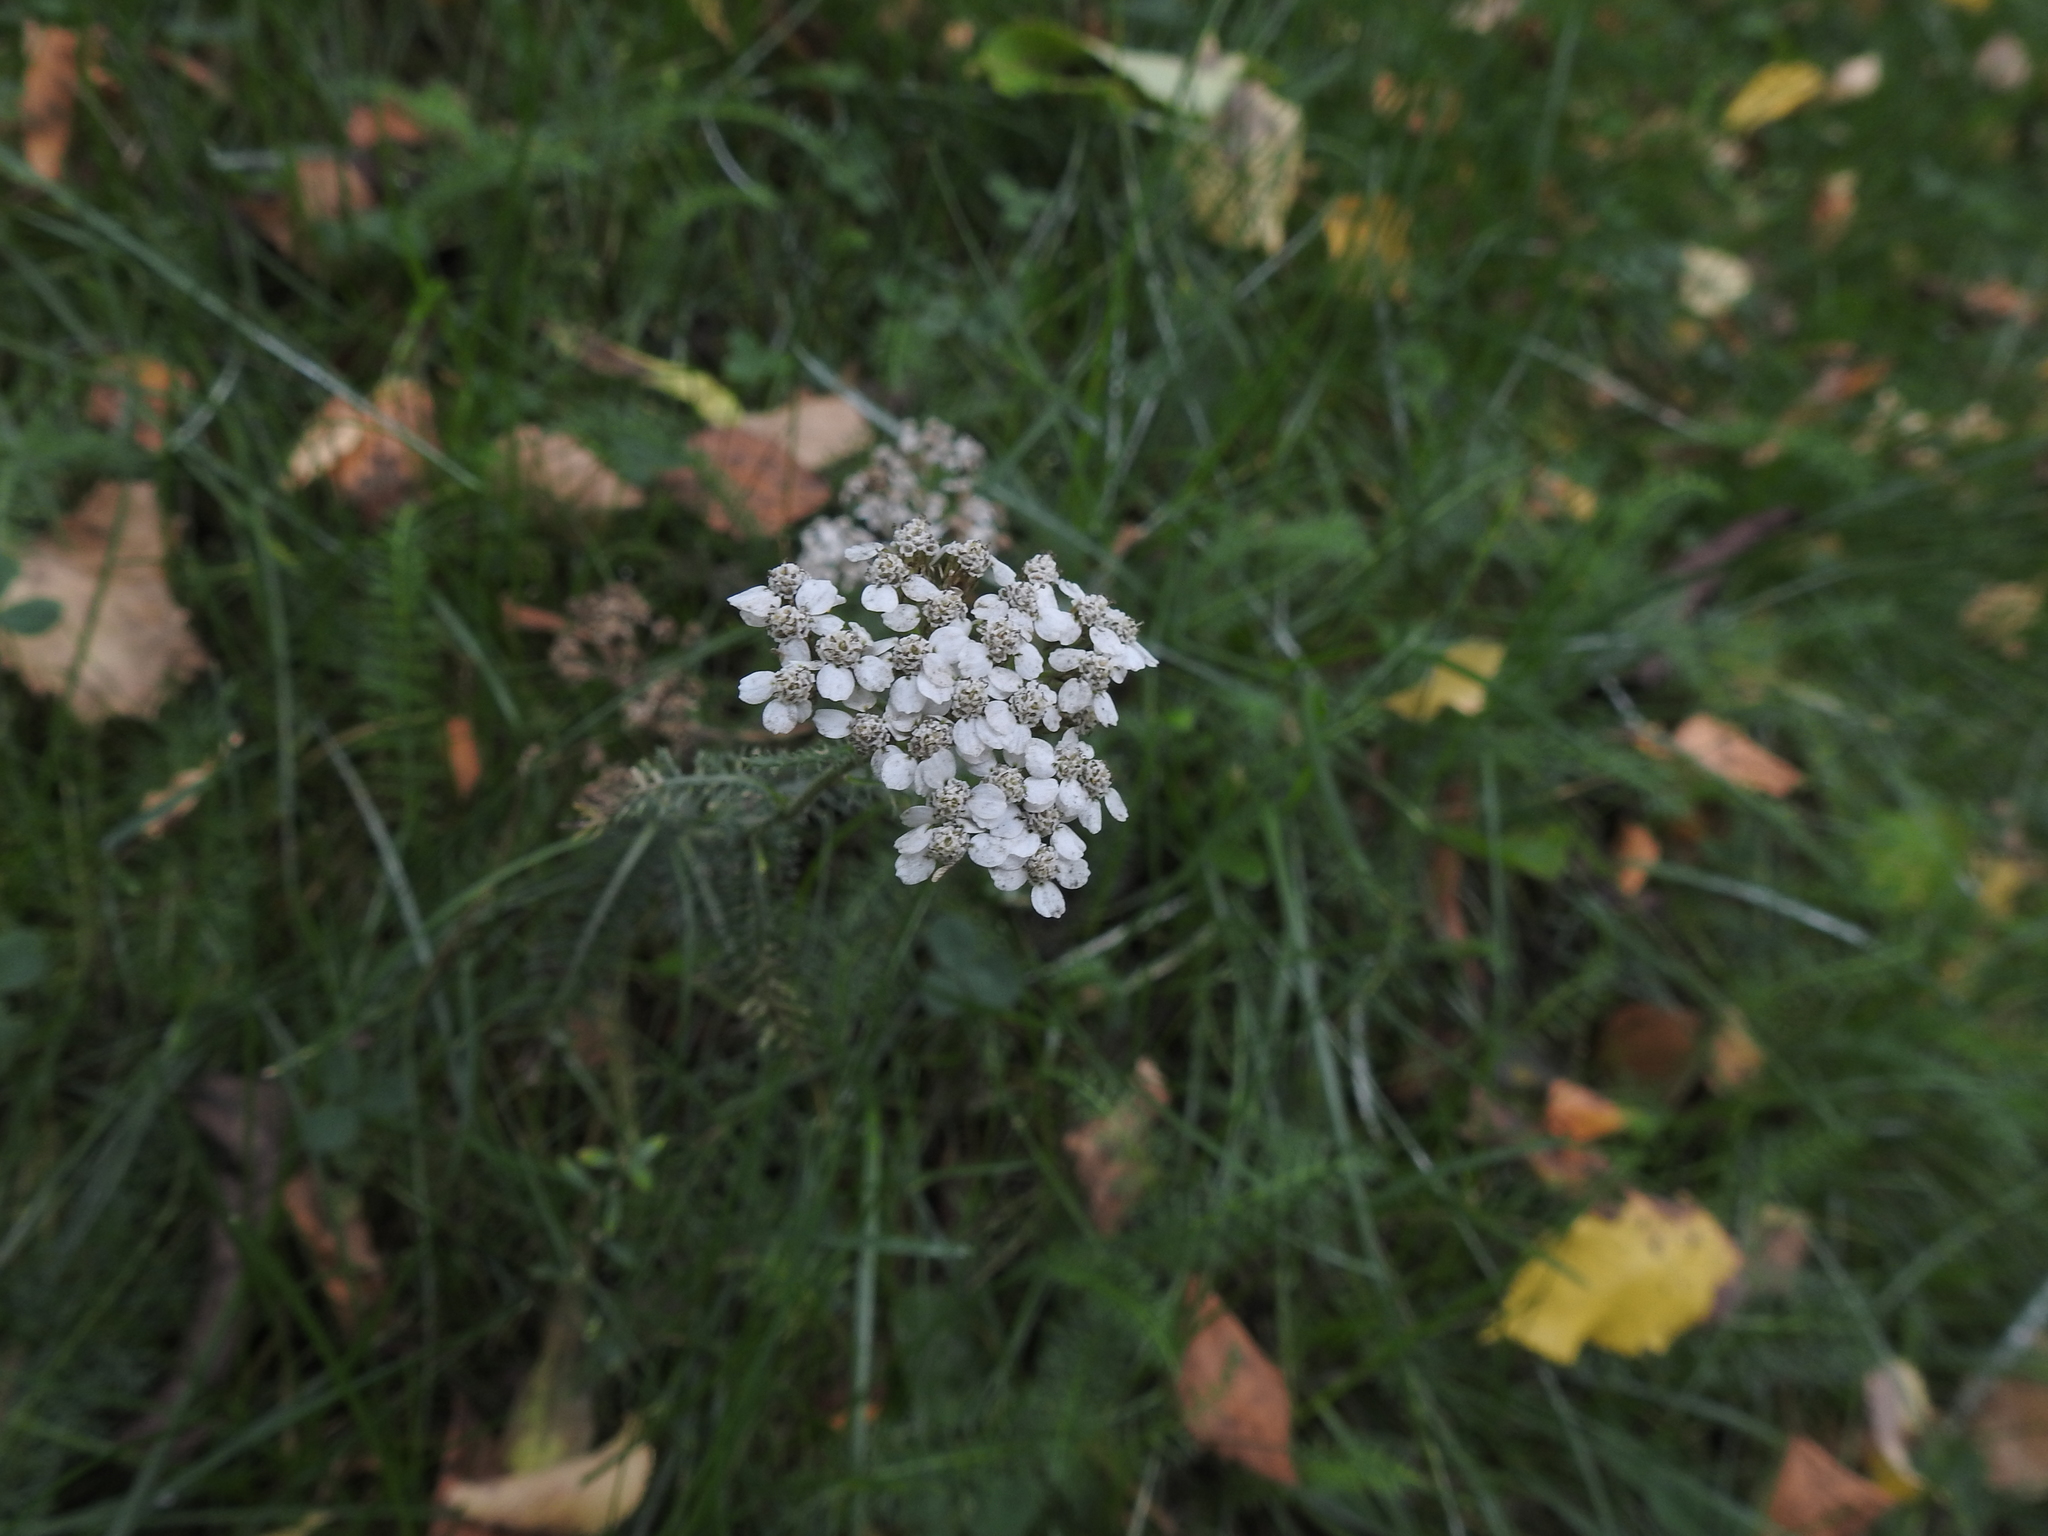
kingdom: Plantae
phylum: Tracheophyta
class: Magnoliopsida
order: Asterales
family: Asteraceae
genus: Achillea
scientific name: Achillea millefolium
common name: Yarrow
